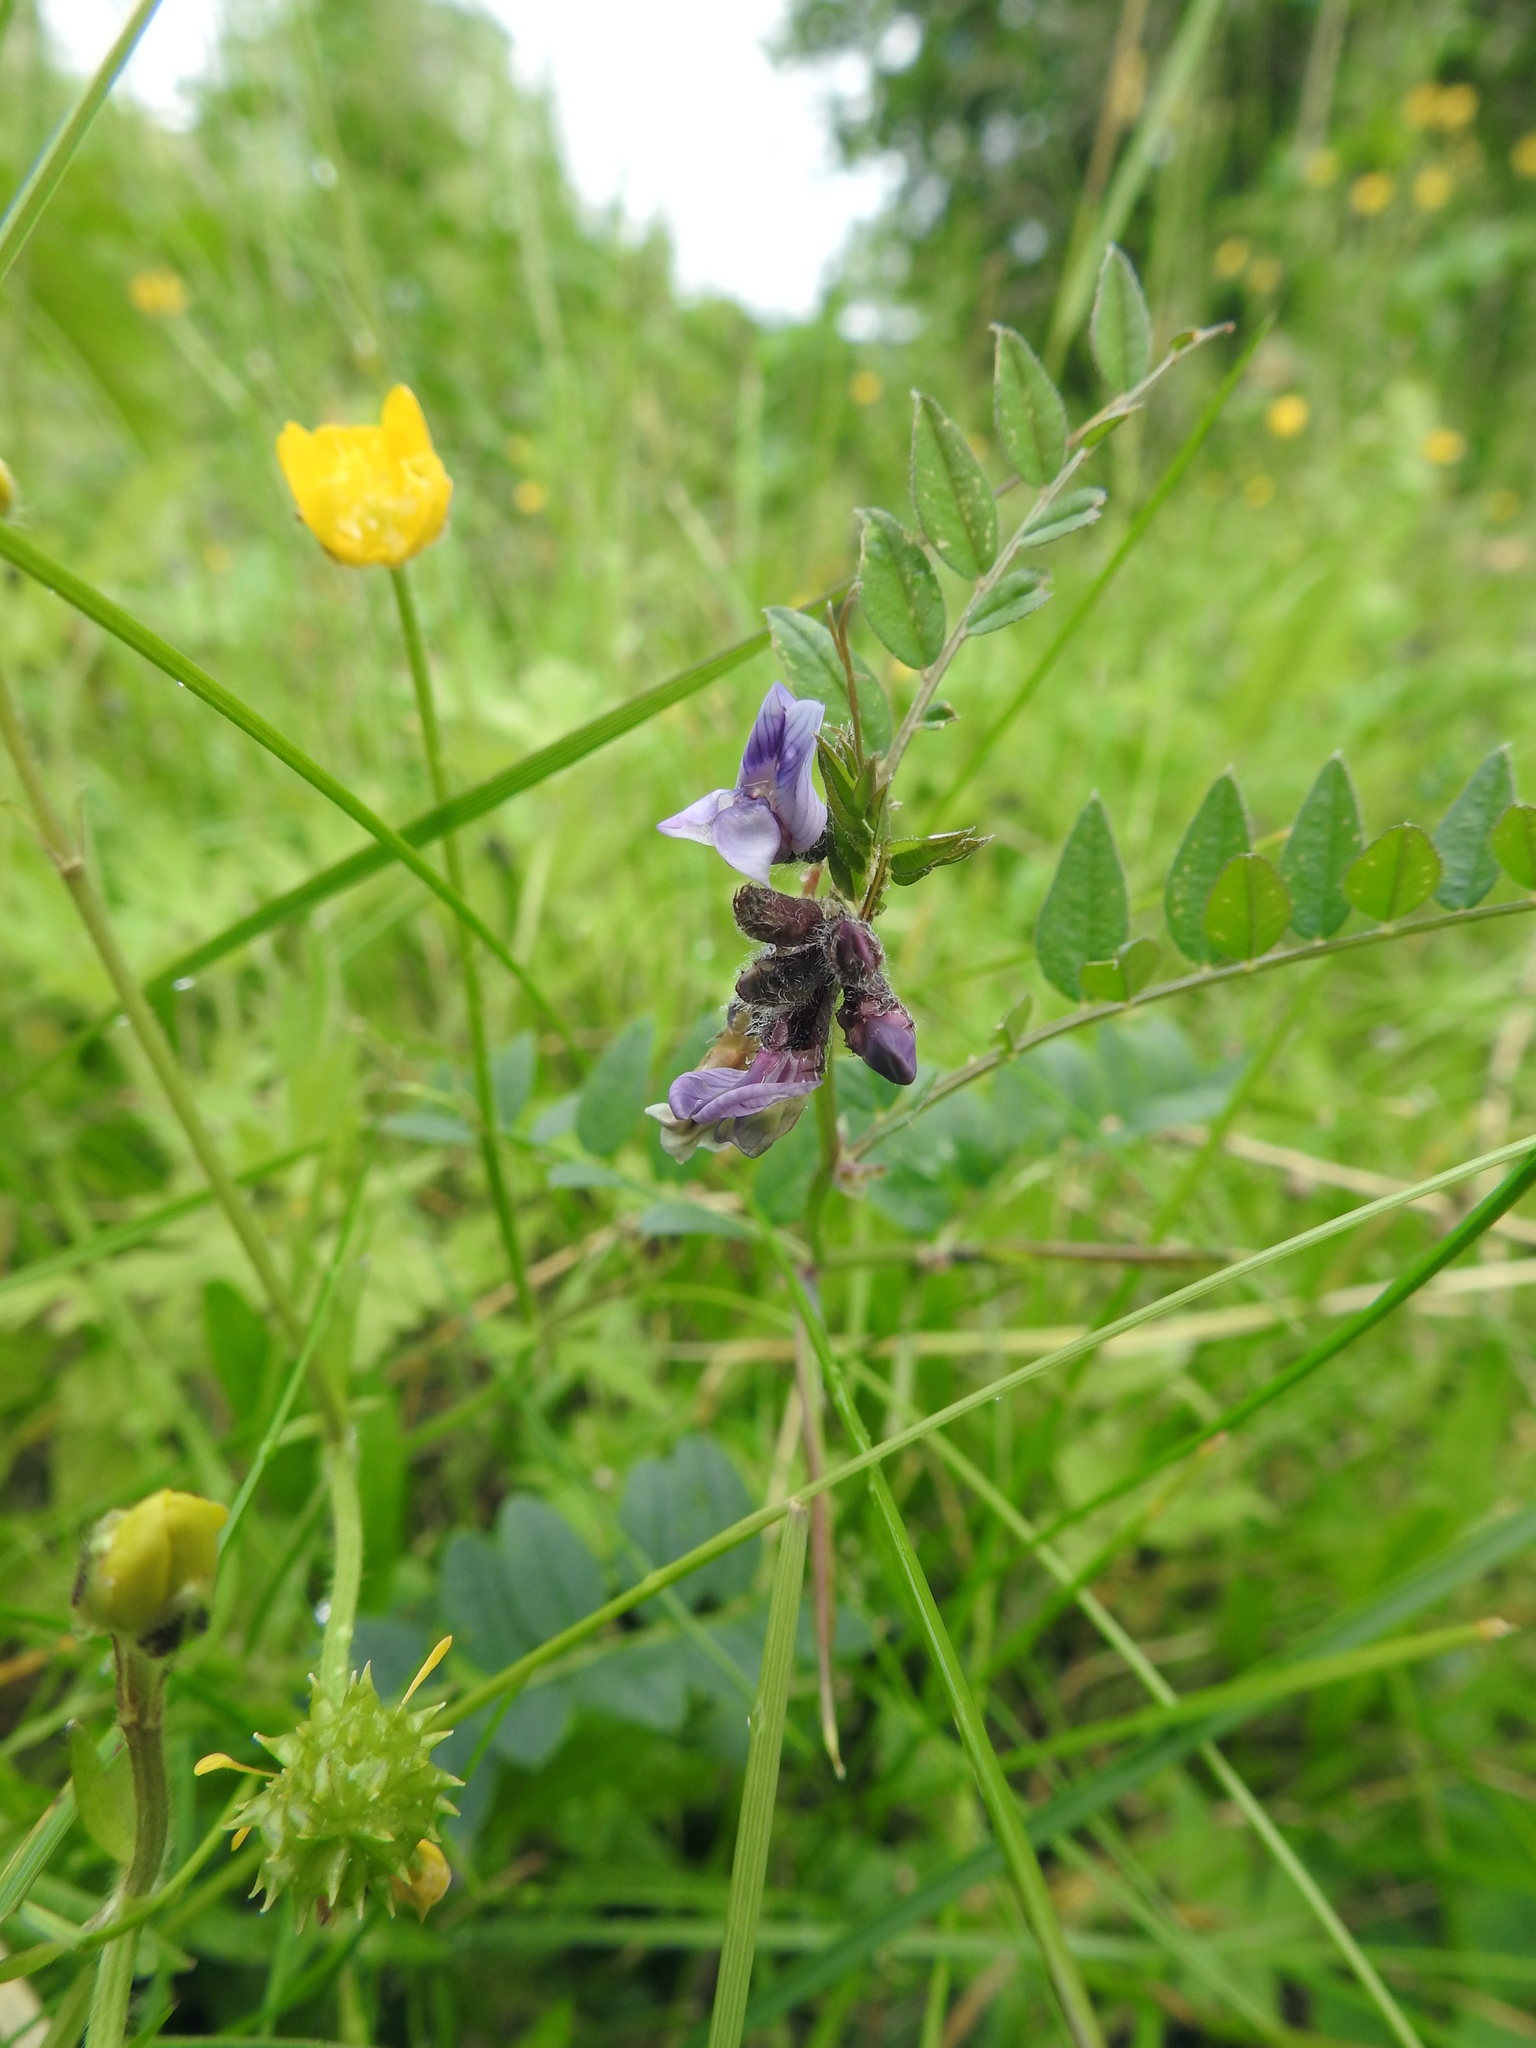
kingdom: Plantae
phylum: Tracheophyta
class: Magnoliopsida
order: Fabales
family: Fabaceae
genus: Vicia
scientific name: Vicia sepium
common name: Bush vetch
